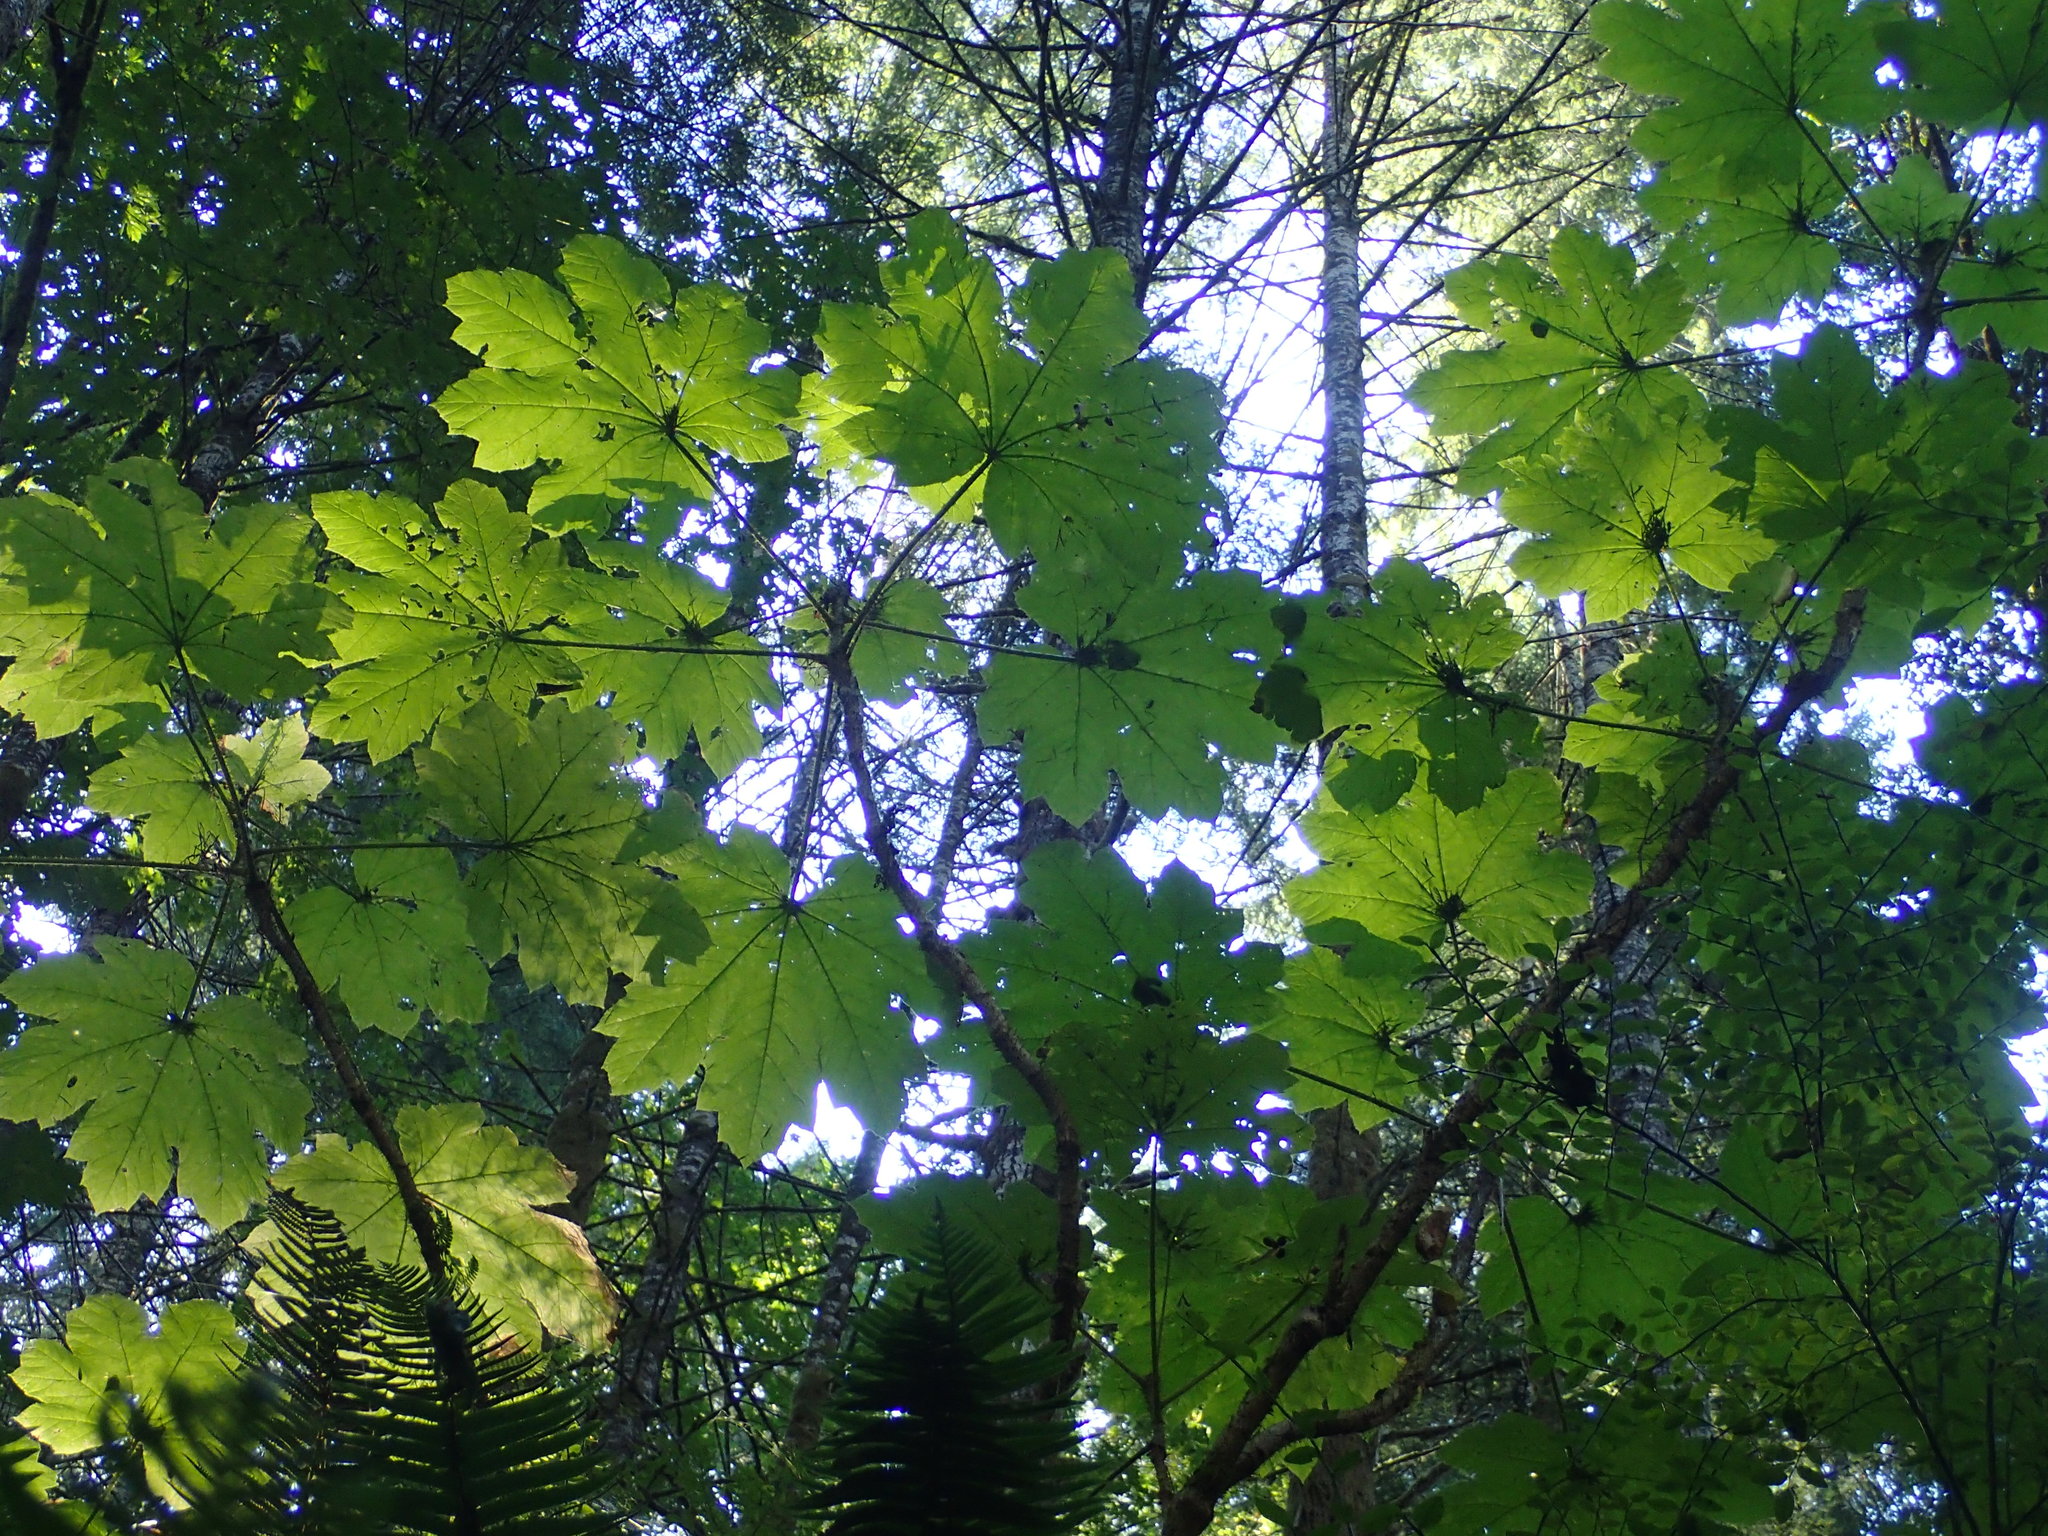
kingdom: Plantae
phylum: Tracheophyta
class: Magnoliopsida
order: Apiales
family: Araliaceae
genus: Oplopanax
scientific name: Oplopanax horridus
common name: Devil's walking-stick
